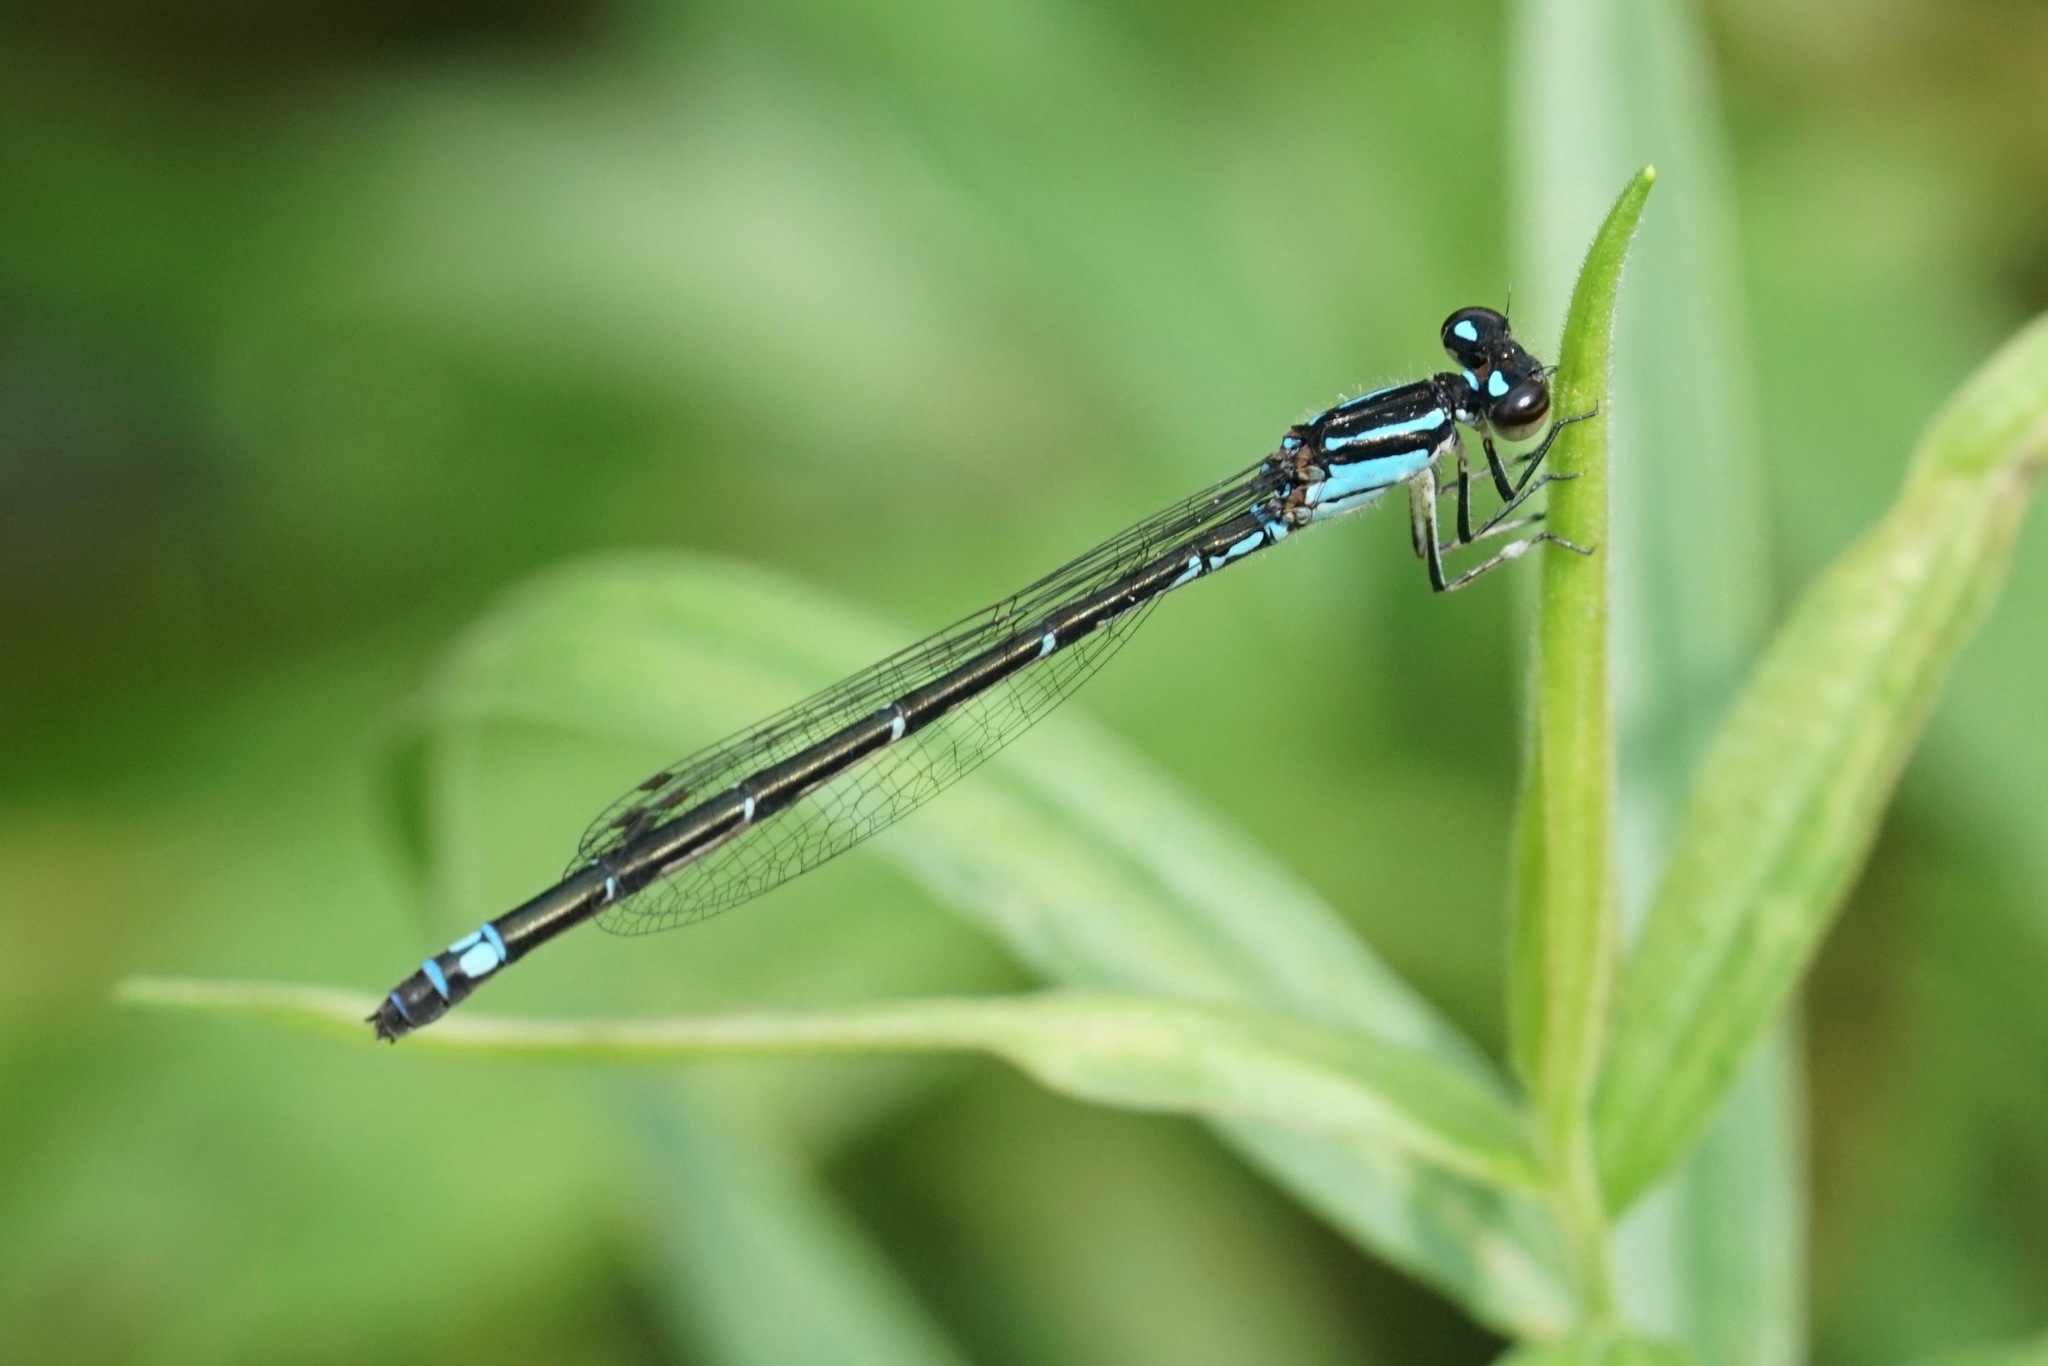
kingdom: Animalia
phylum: Arthropoda
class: Insecta
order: Odonata
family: Coenagrionidae
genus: Enallagma
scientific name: Enallagma geminatum
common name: Skimming bluet
